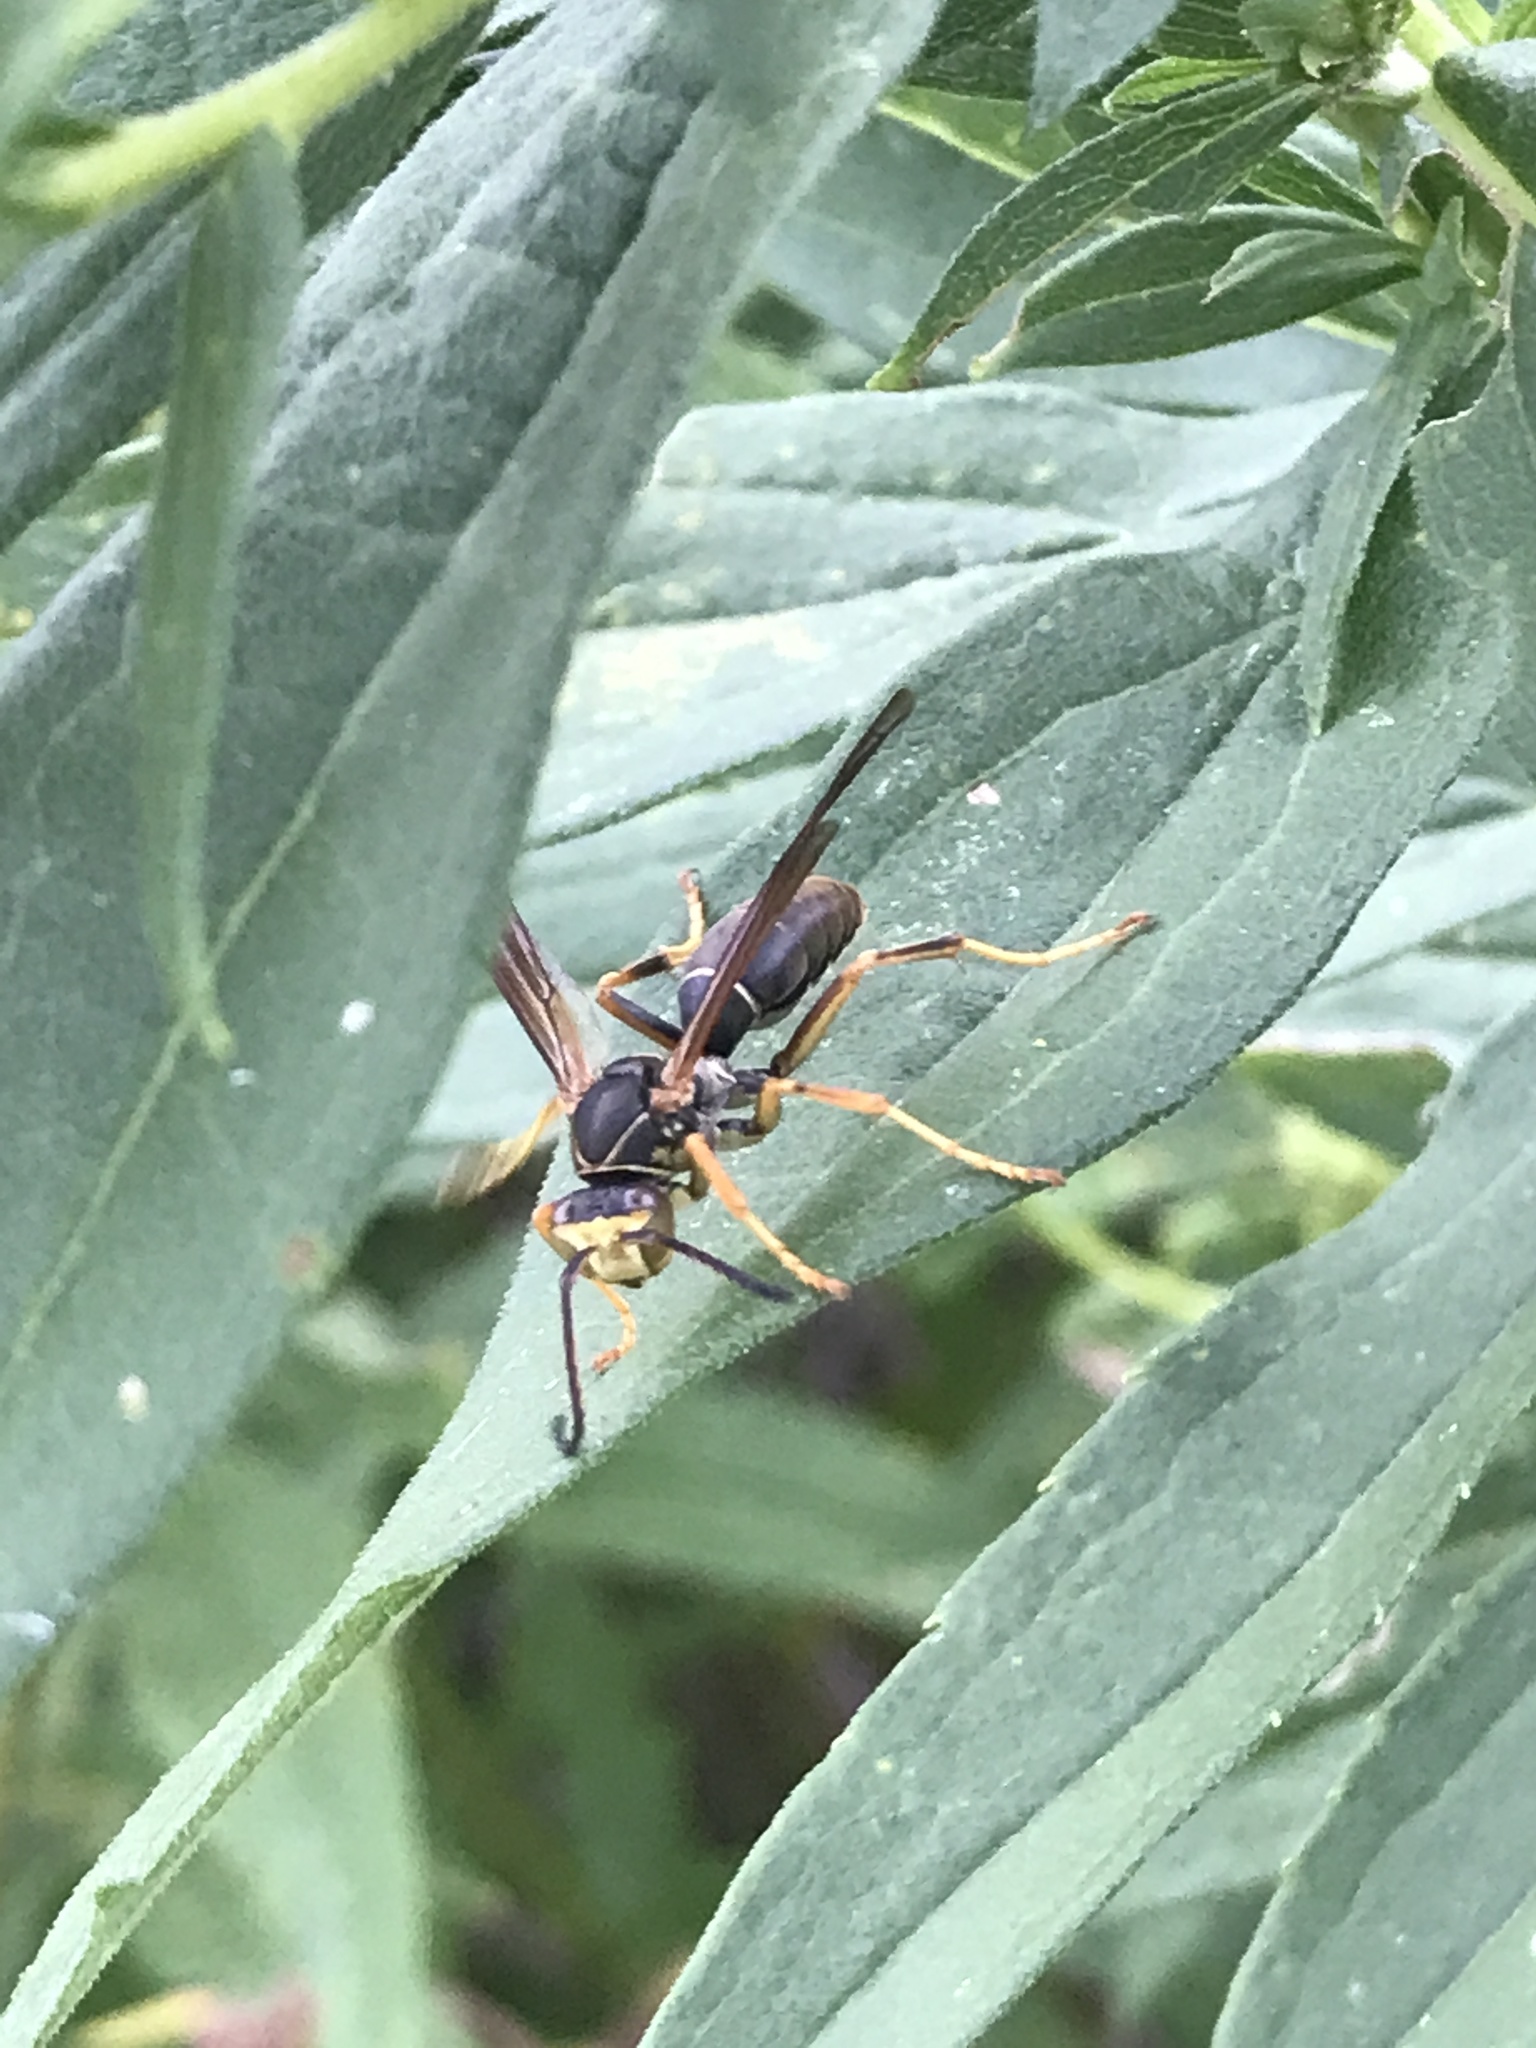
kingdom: Animalia
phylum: Arthropoda
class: Insecta
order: Hymenoptera
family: Eumenidae
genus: Polistes
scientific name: Polistes fuscatus
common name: Dark paper wasp
